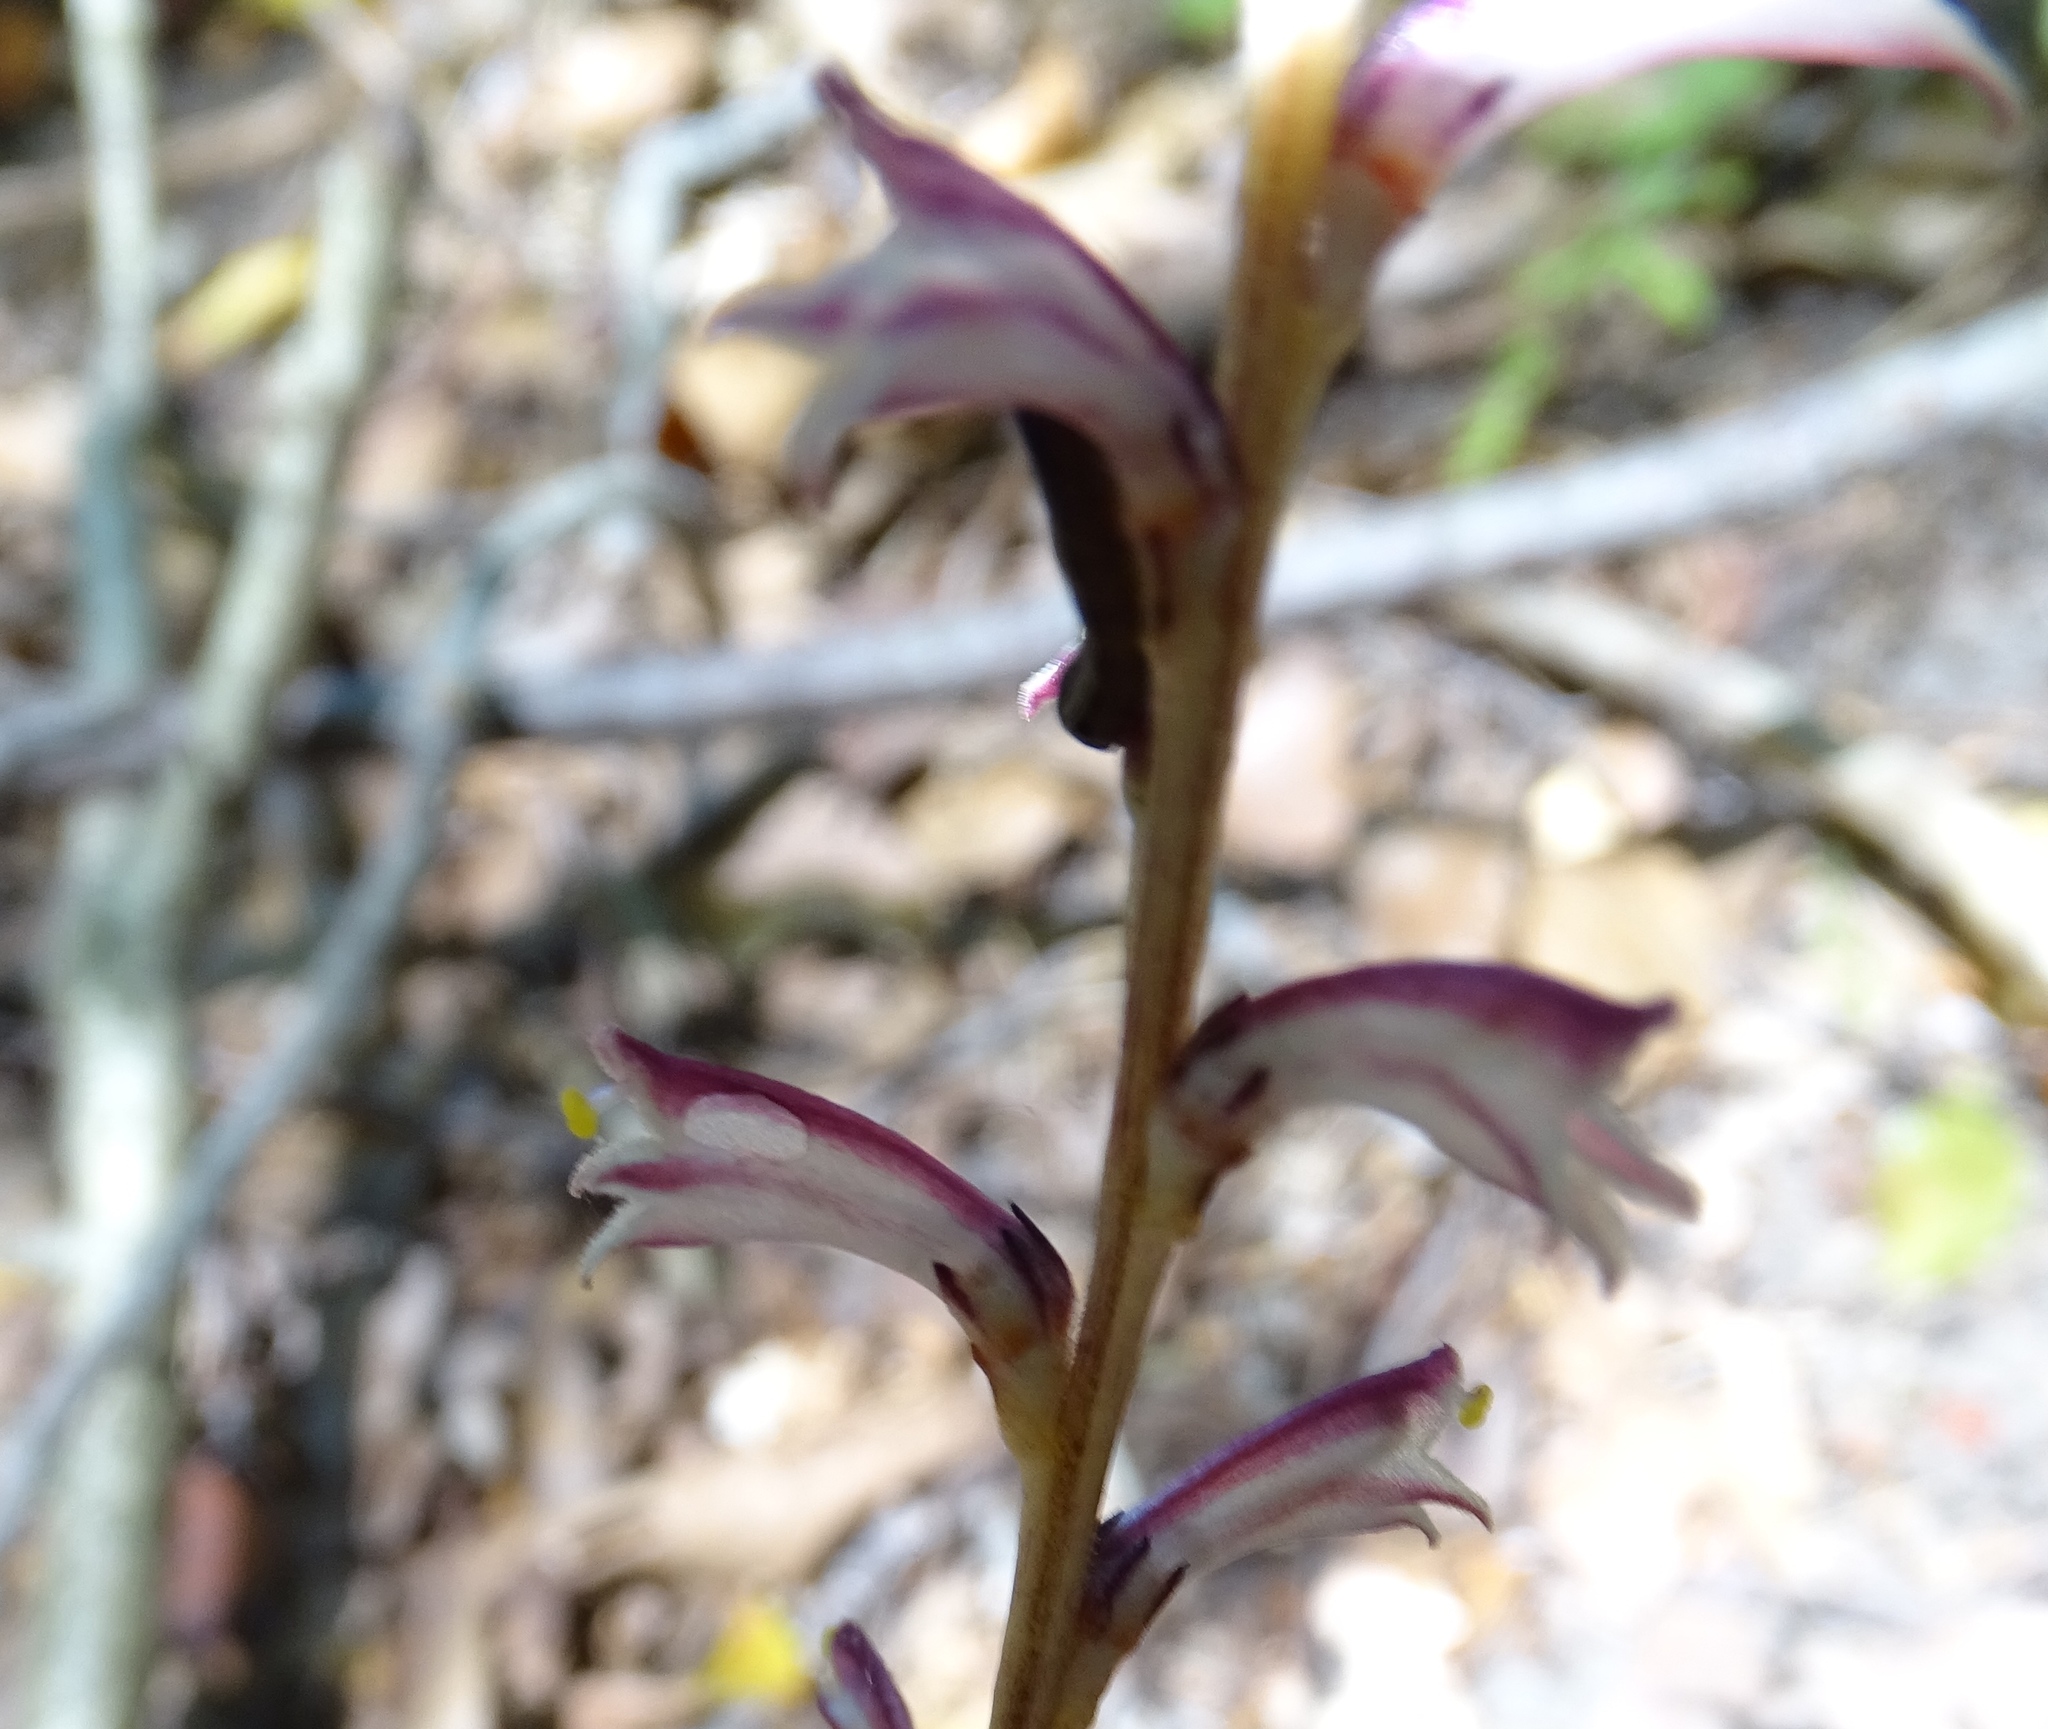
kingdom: Plantae
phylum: Tracheophyta
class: Magnoliopsida
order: Lamiales
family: Orobanchaceae
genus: Epifagus
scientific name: Epifagus virginiana
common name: Beechdrops
